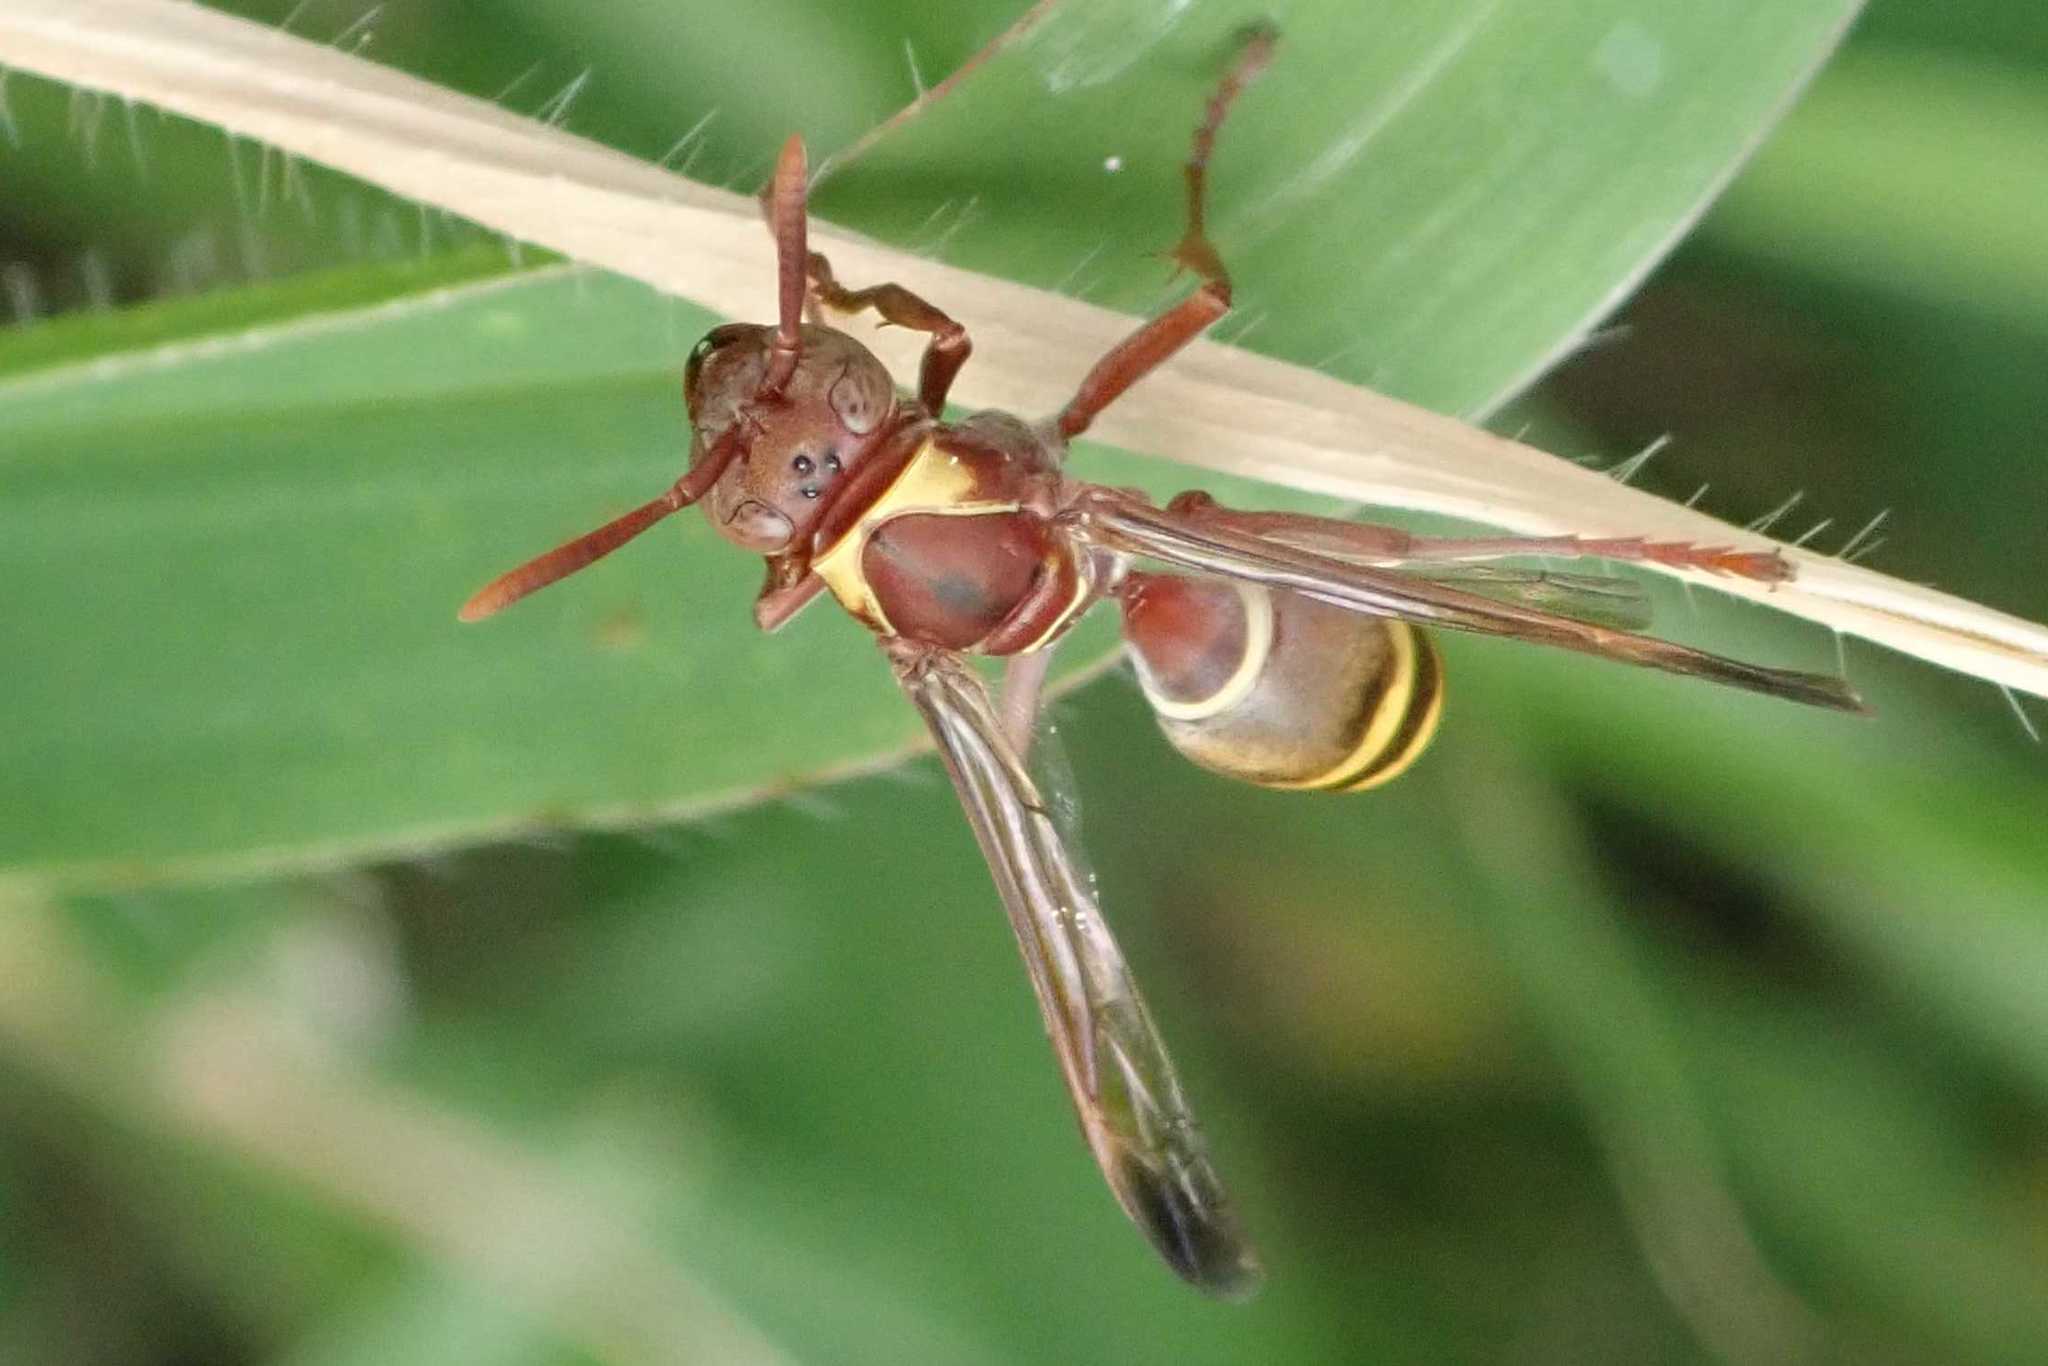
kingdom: Animalia
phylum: Arthropoda
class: Insecta
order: Hymenoptera
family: Eumenidae
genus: Polistes
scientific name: Polistes badius
